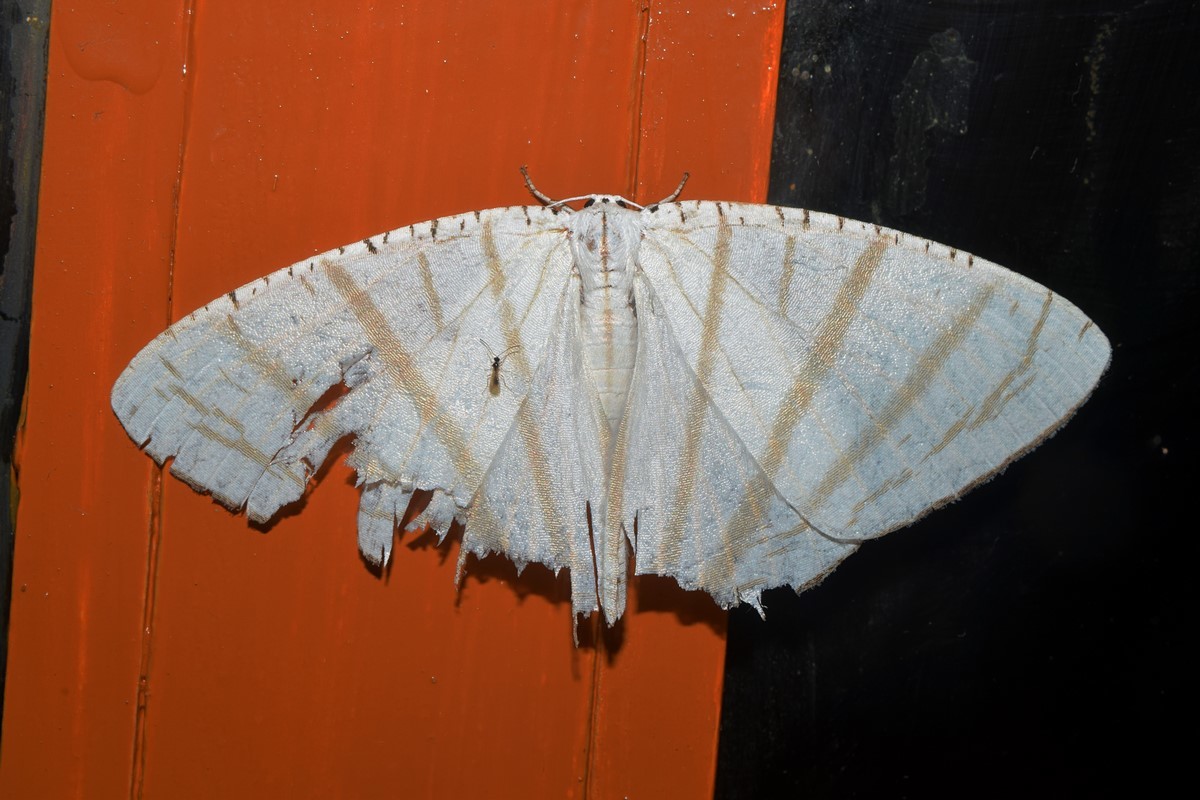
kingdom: Animalia
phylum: Arthropoda
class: Insecta
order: Lepidoptera
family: Uraniidae
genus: Urapteroides
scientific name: Urapteroides astheniata
